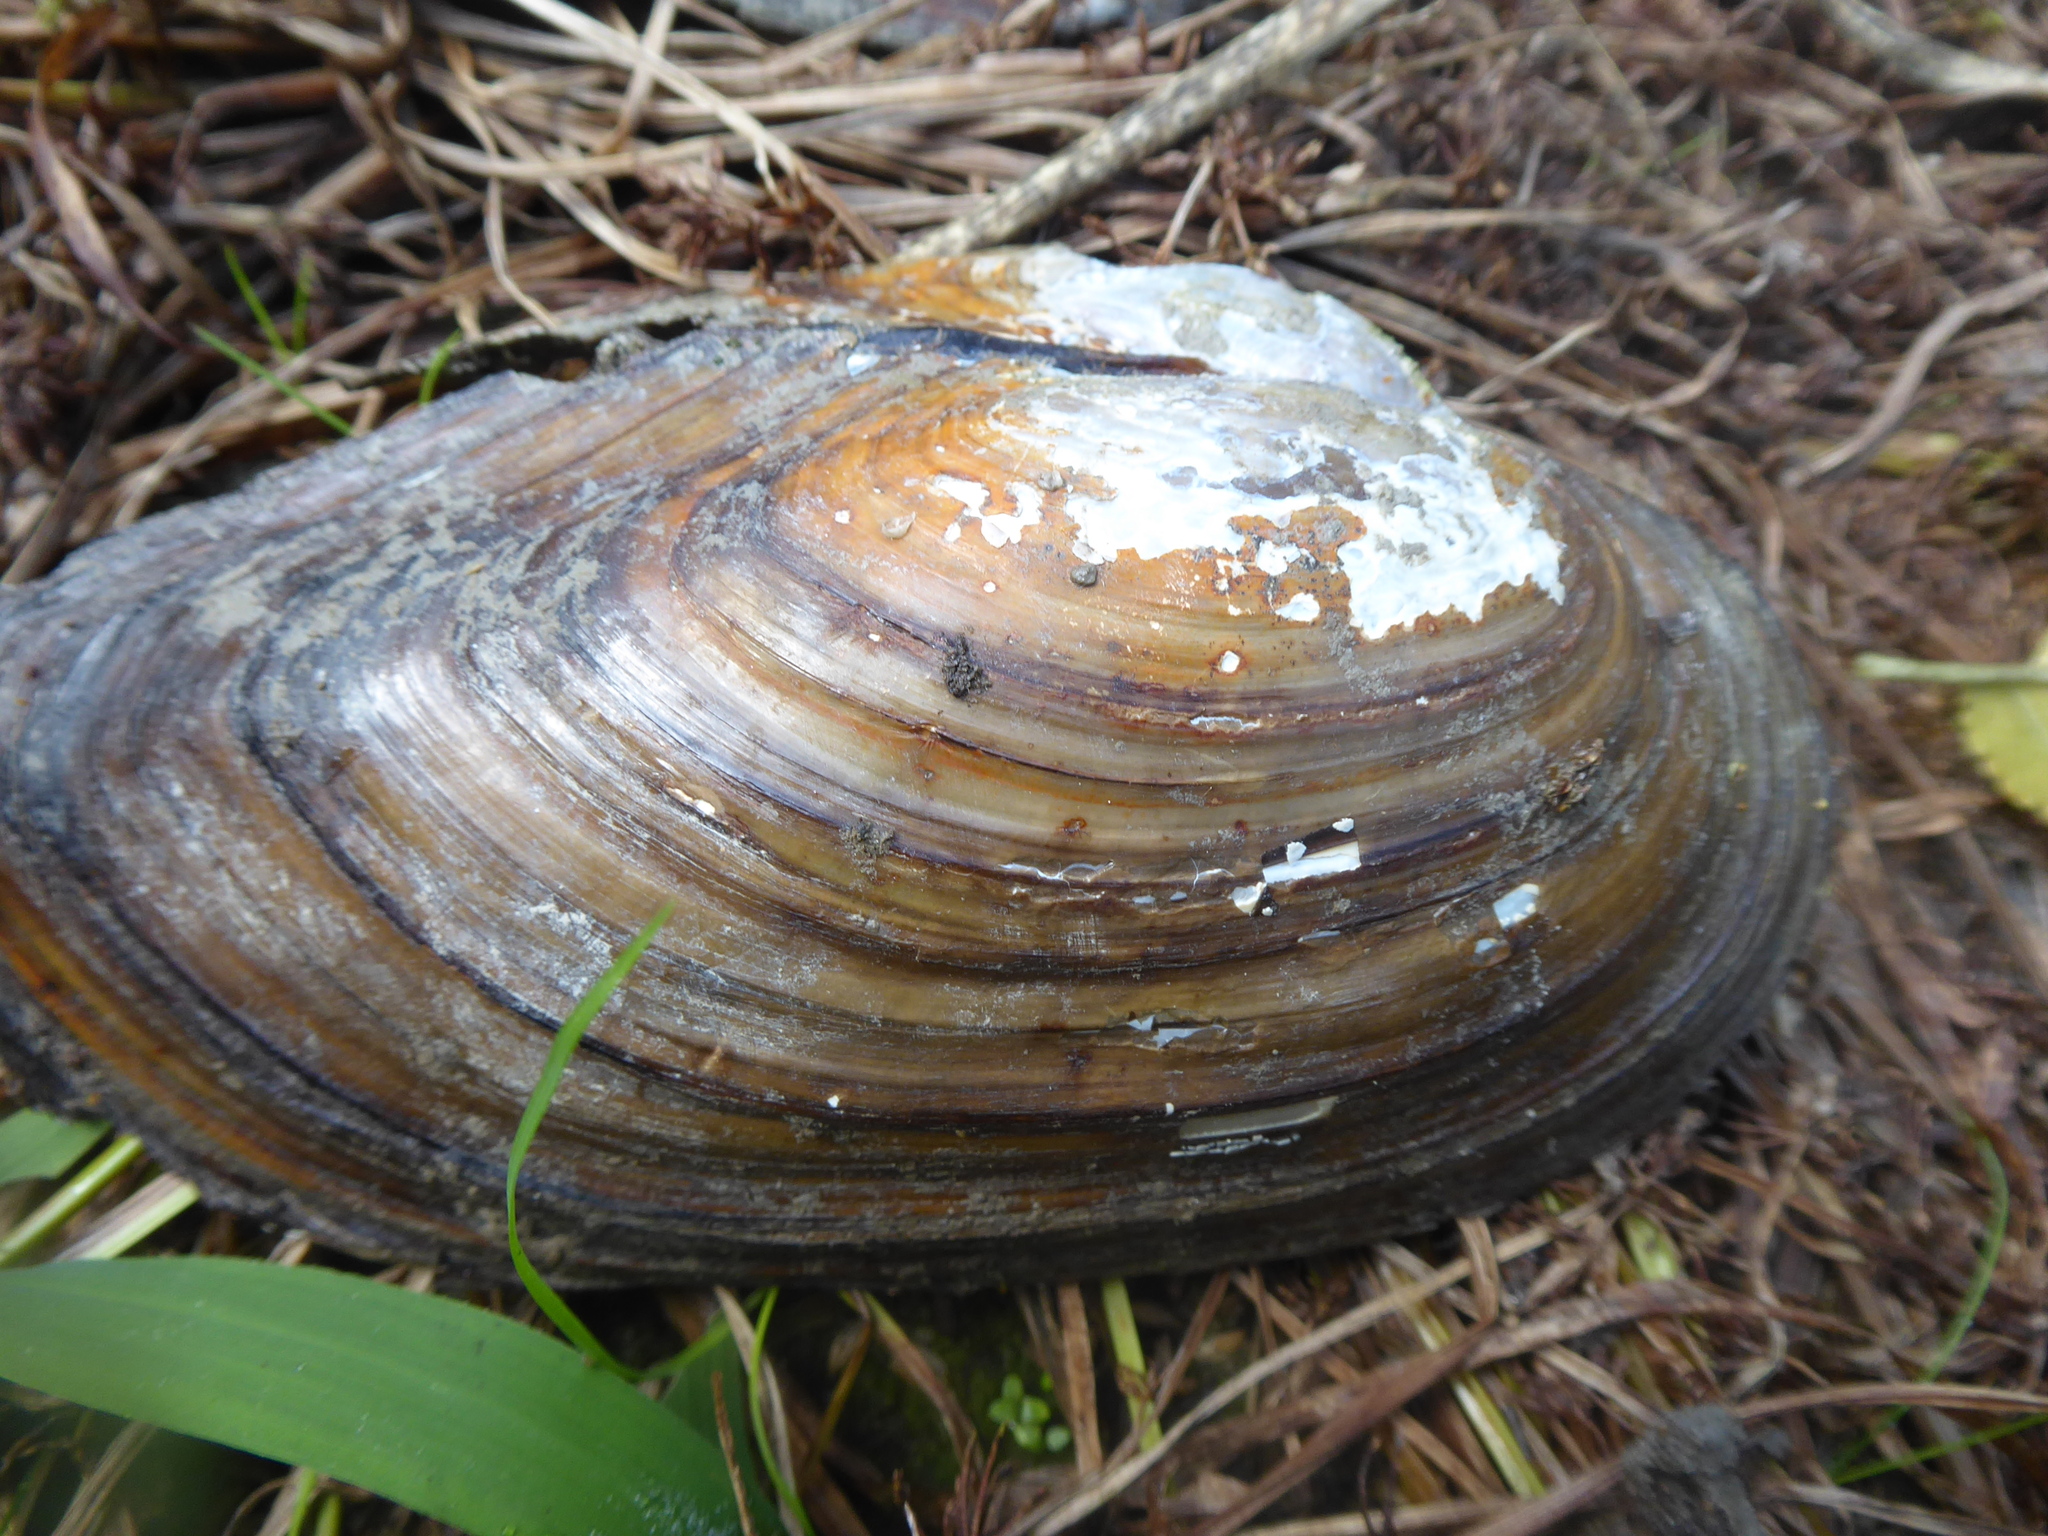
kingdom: Animalia
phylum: Mollusca
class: Bivalvia
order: Unionida
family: Unionidae
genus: Anodonta
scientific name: Anodonta cygnea
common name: Swan mussel
